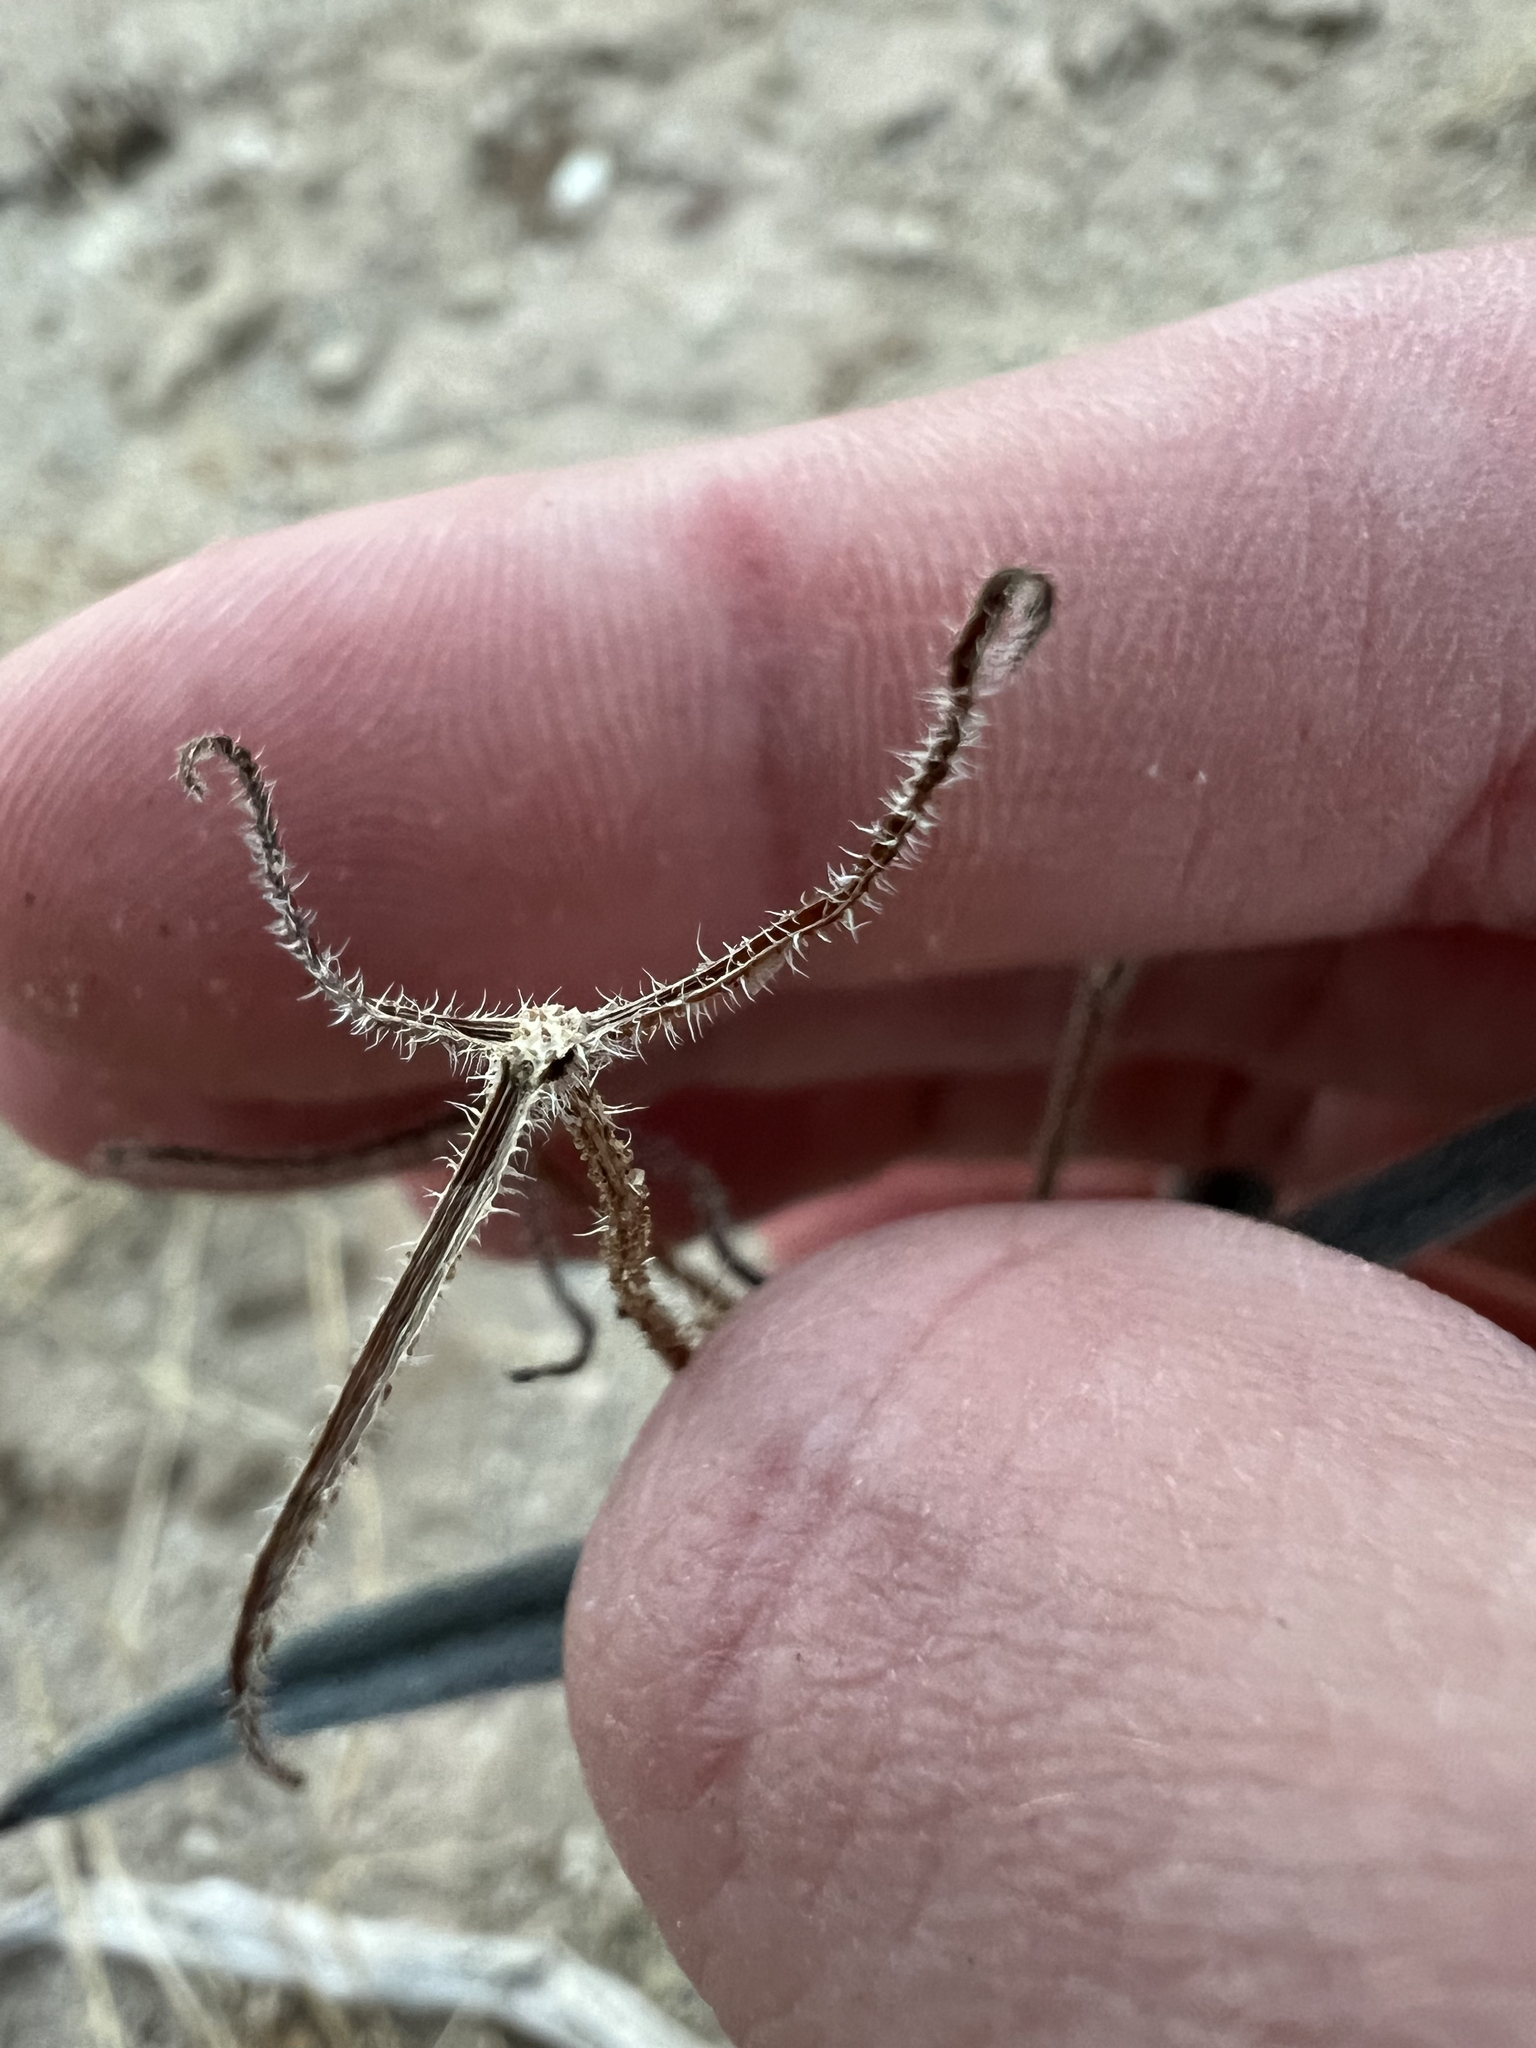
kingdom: Plantae
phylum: Tracheophyta
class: Magnoliopsida
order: Asterales
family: Asteraceae
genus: Palafoxia
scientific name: Palafoxia arida
